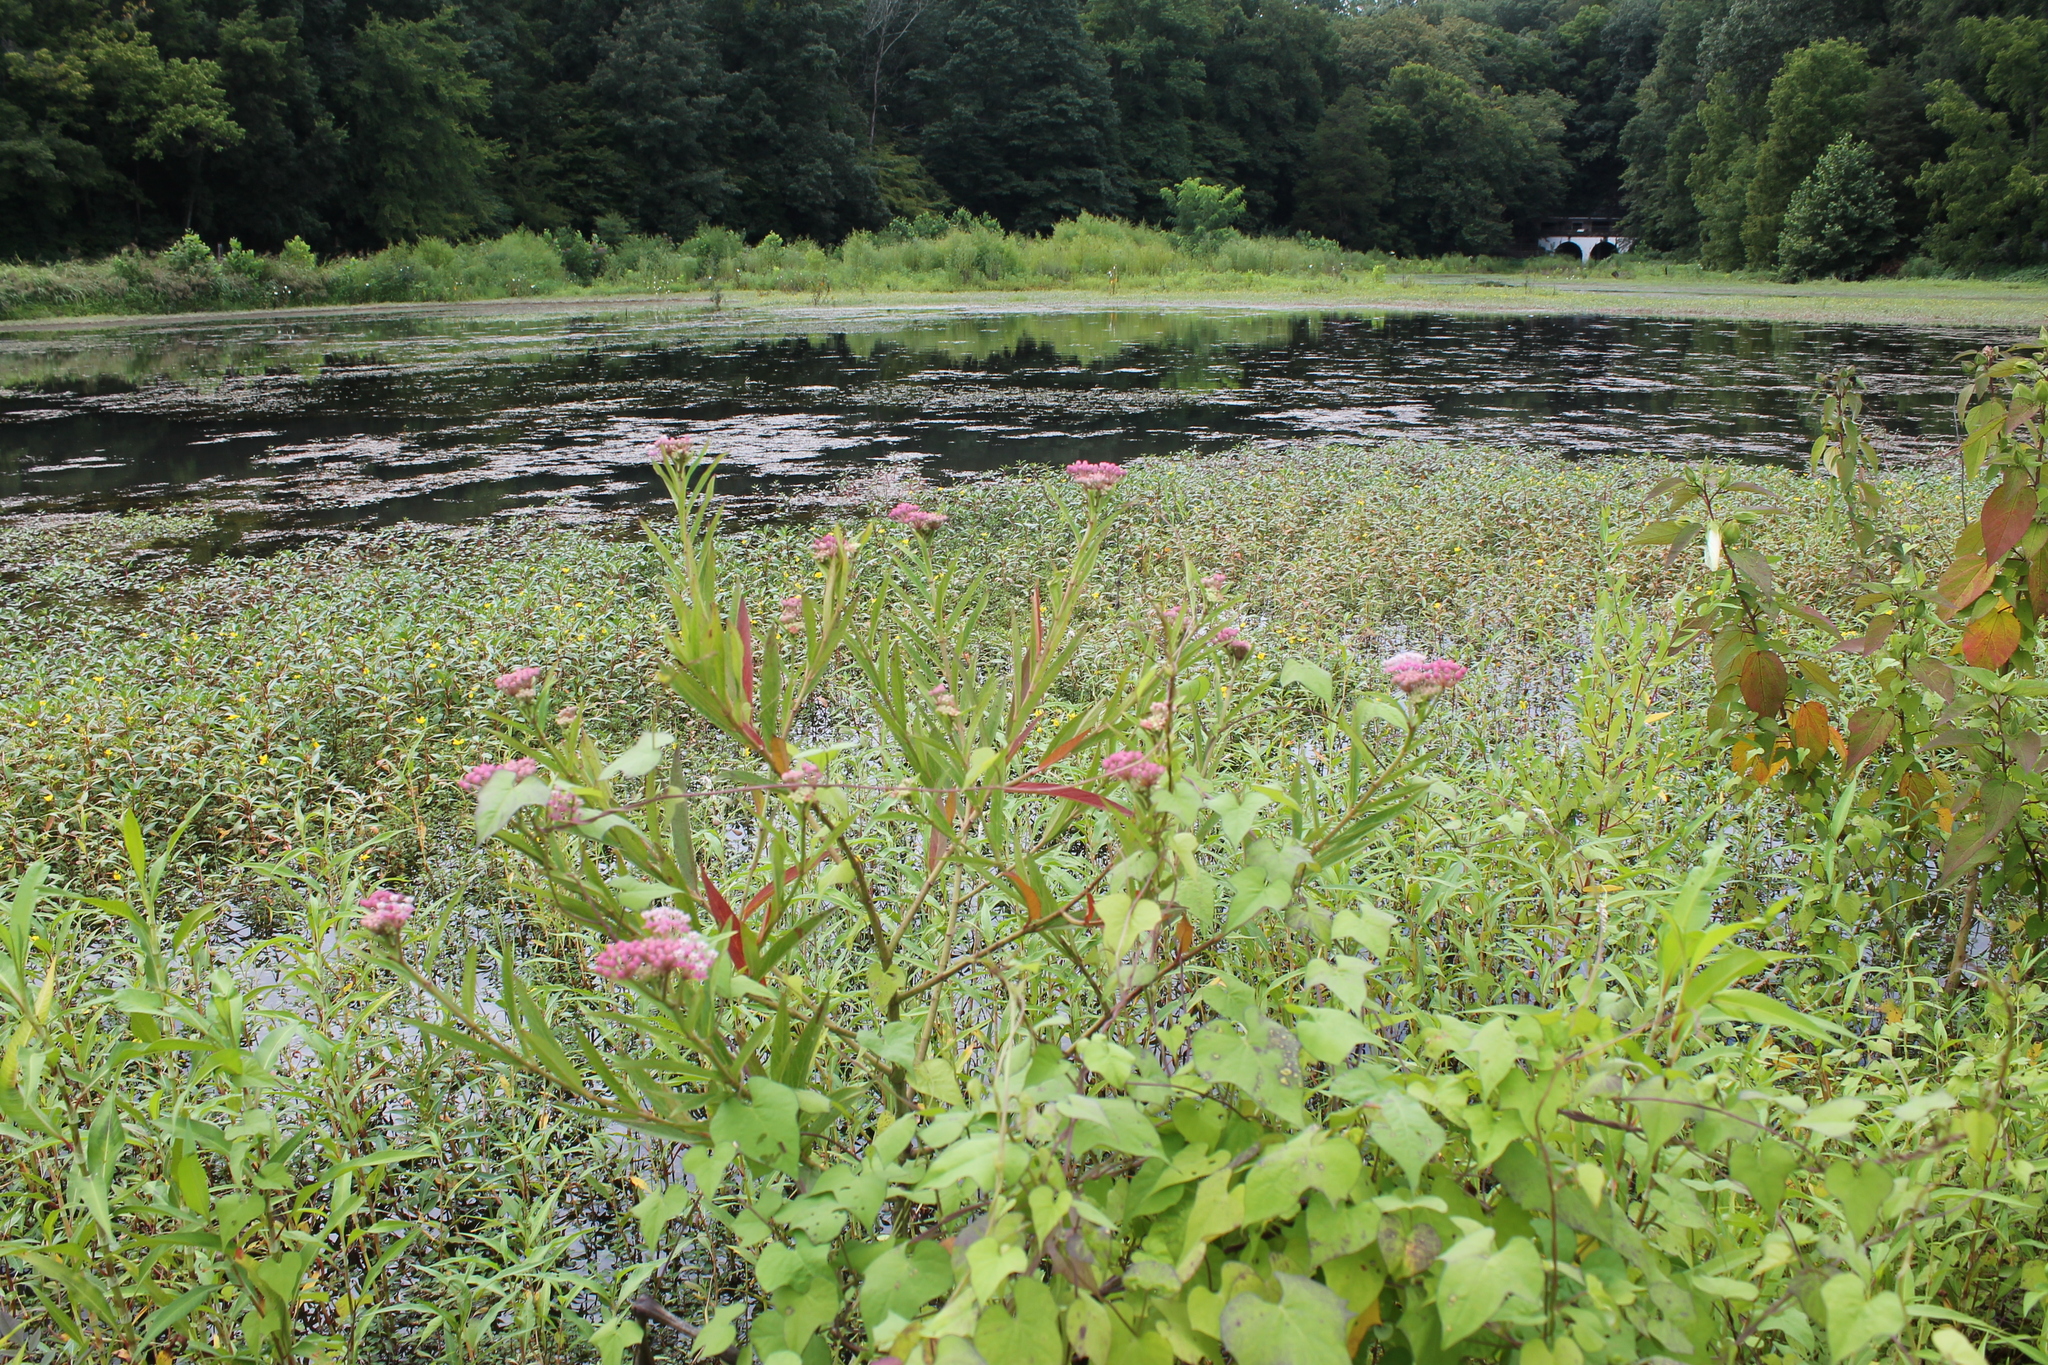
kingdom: Plantae
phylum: Tracheophyta
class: Magnoliopsida
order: Gentianales
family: Apocynaceae
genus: Asclepias
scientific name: Asclepias incarnata
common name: Swamp milkweed
